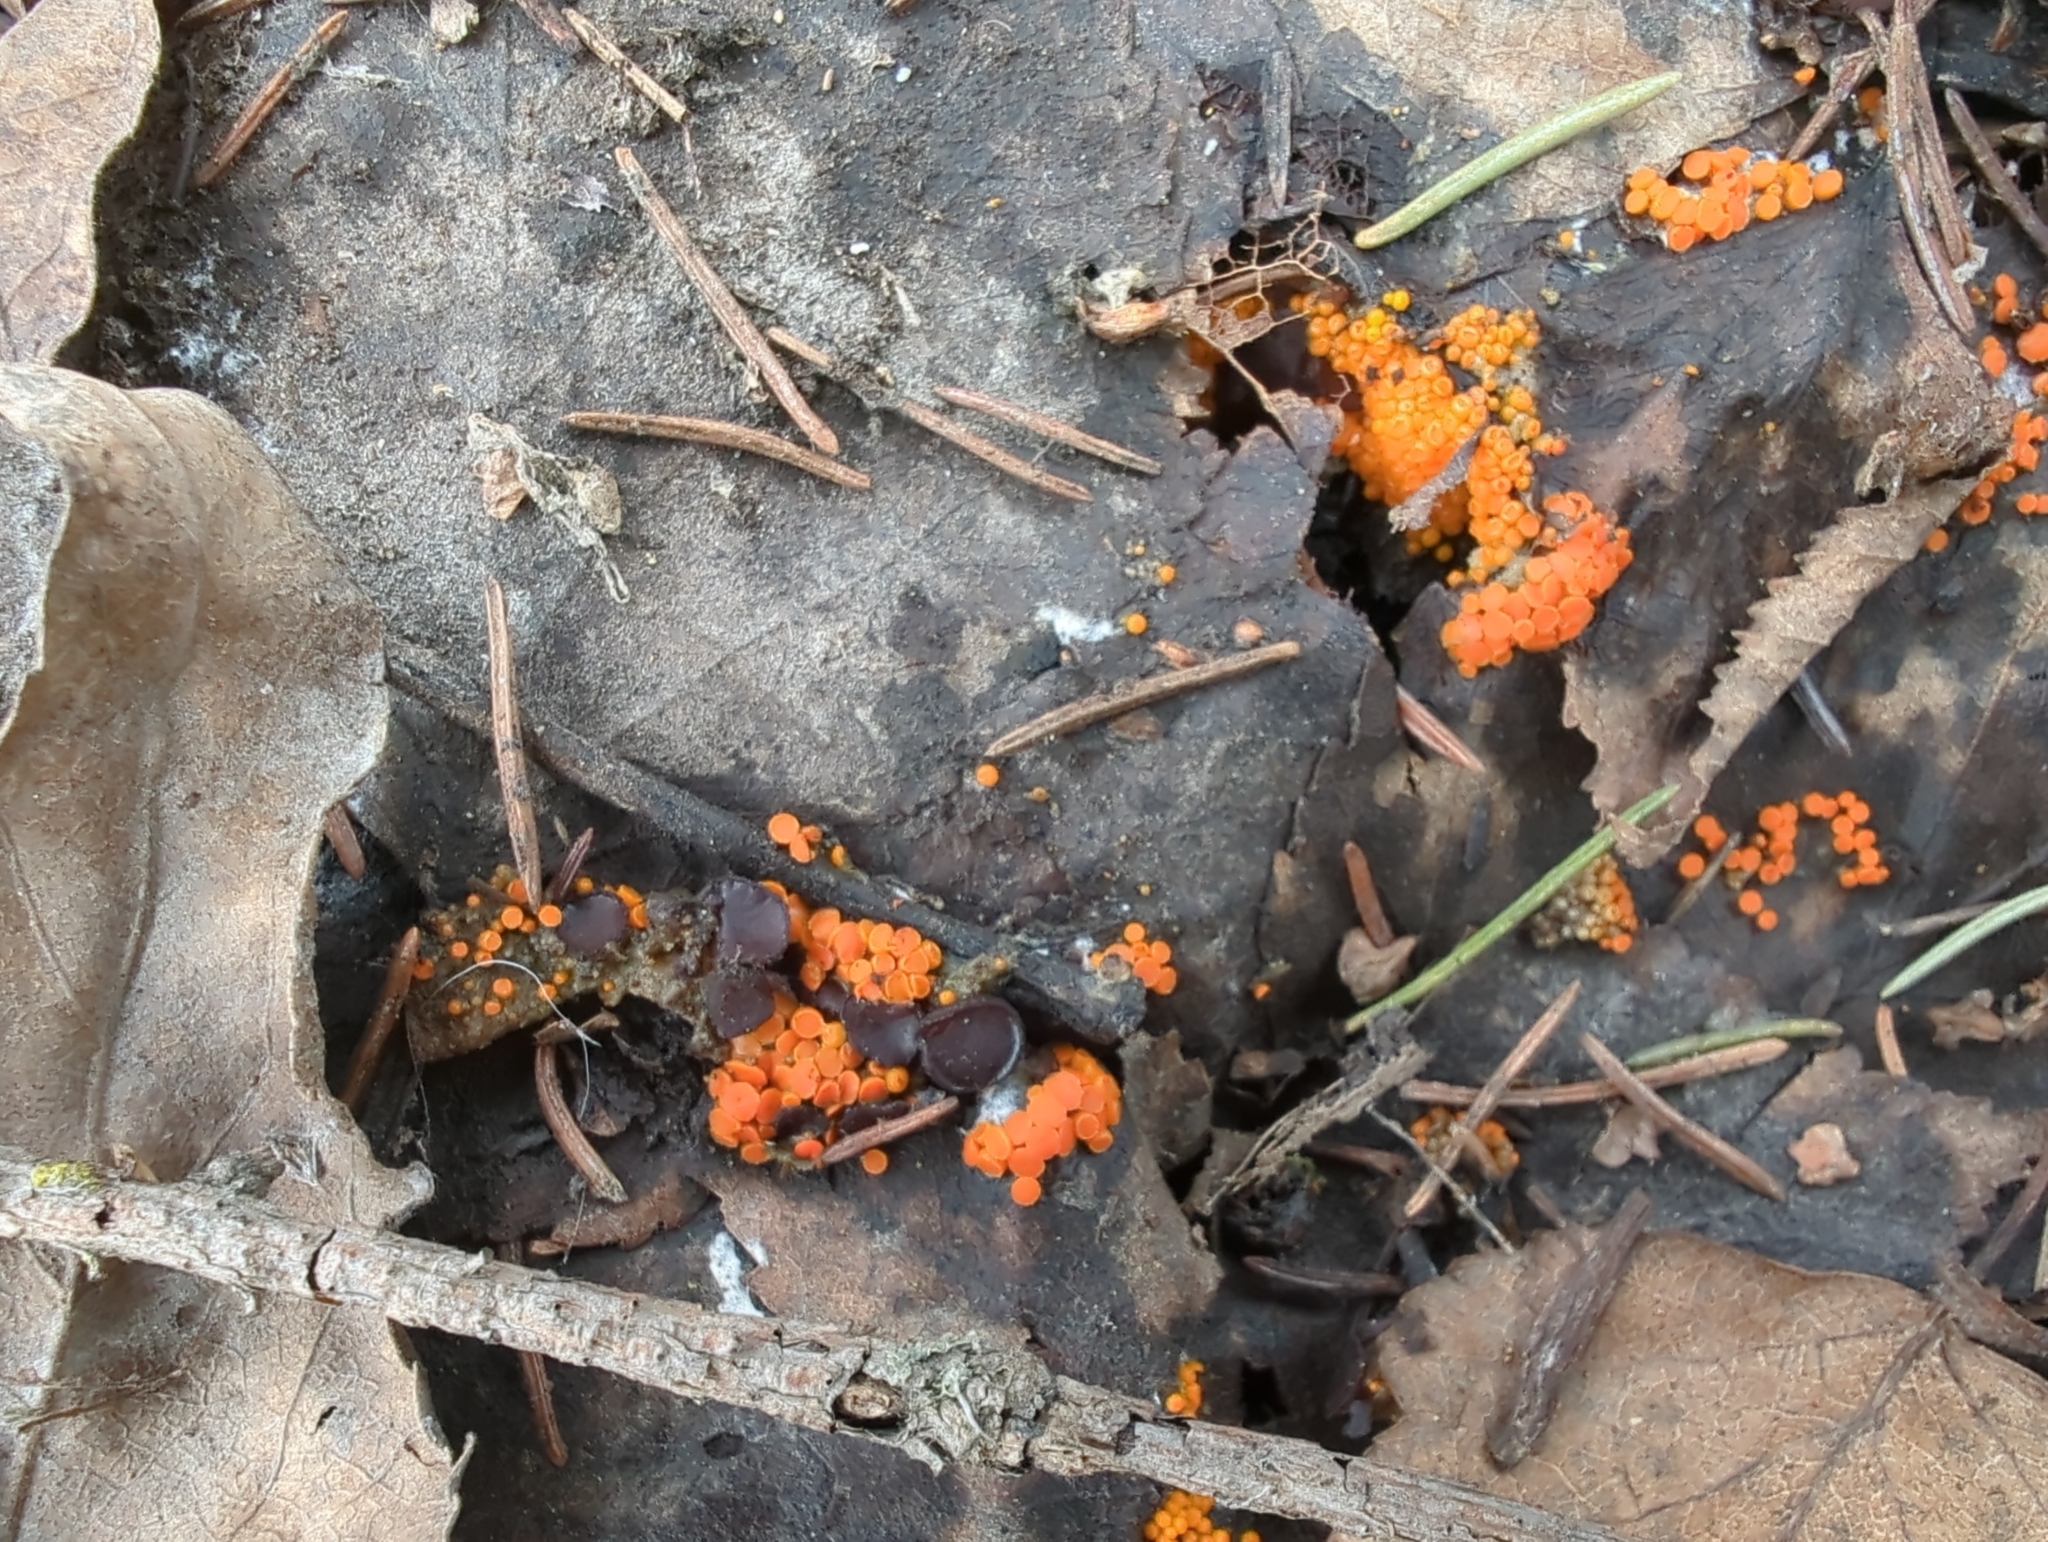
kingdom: Fungi
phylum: Ascomycota
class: Pezizomycetes
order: Pezizales
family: Pyronemataceae
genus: Byssonectria
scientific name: Byssonectria terrestris
